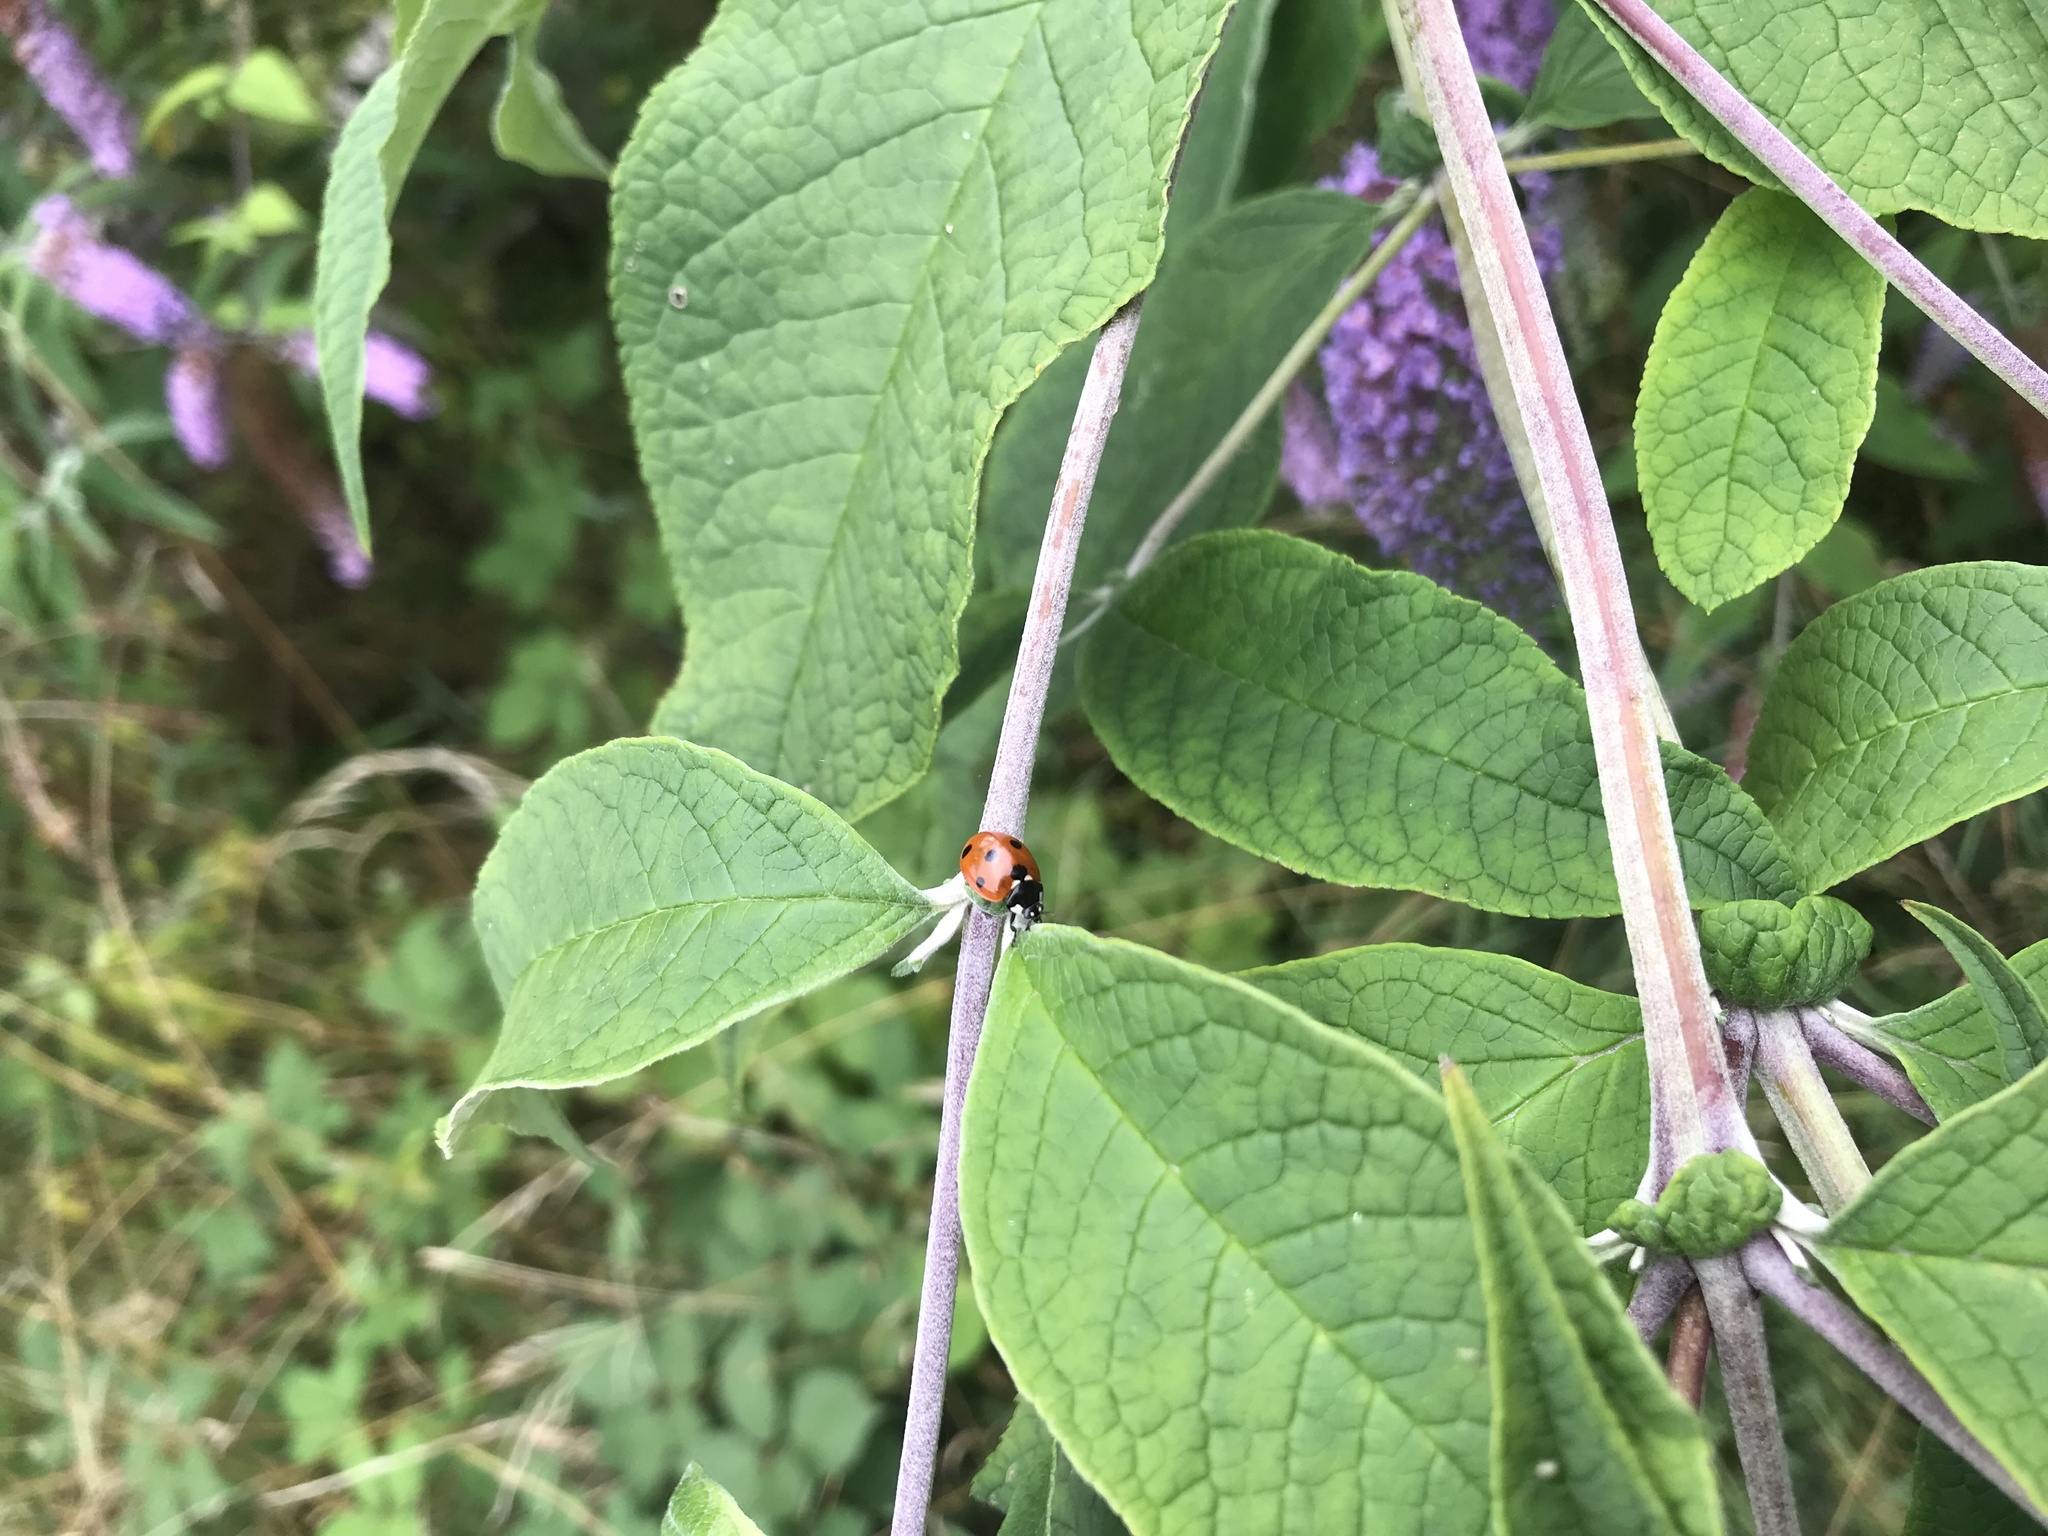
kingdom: Animalia
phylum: Arthropoda
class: Insecta
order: Coleoptera
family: Coccinellidae
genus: Coccinella
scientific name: Coccinella septempunctata
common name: Sevenspotted lady beetle
